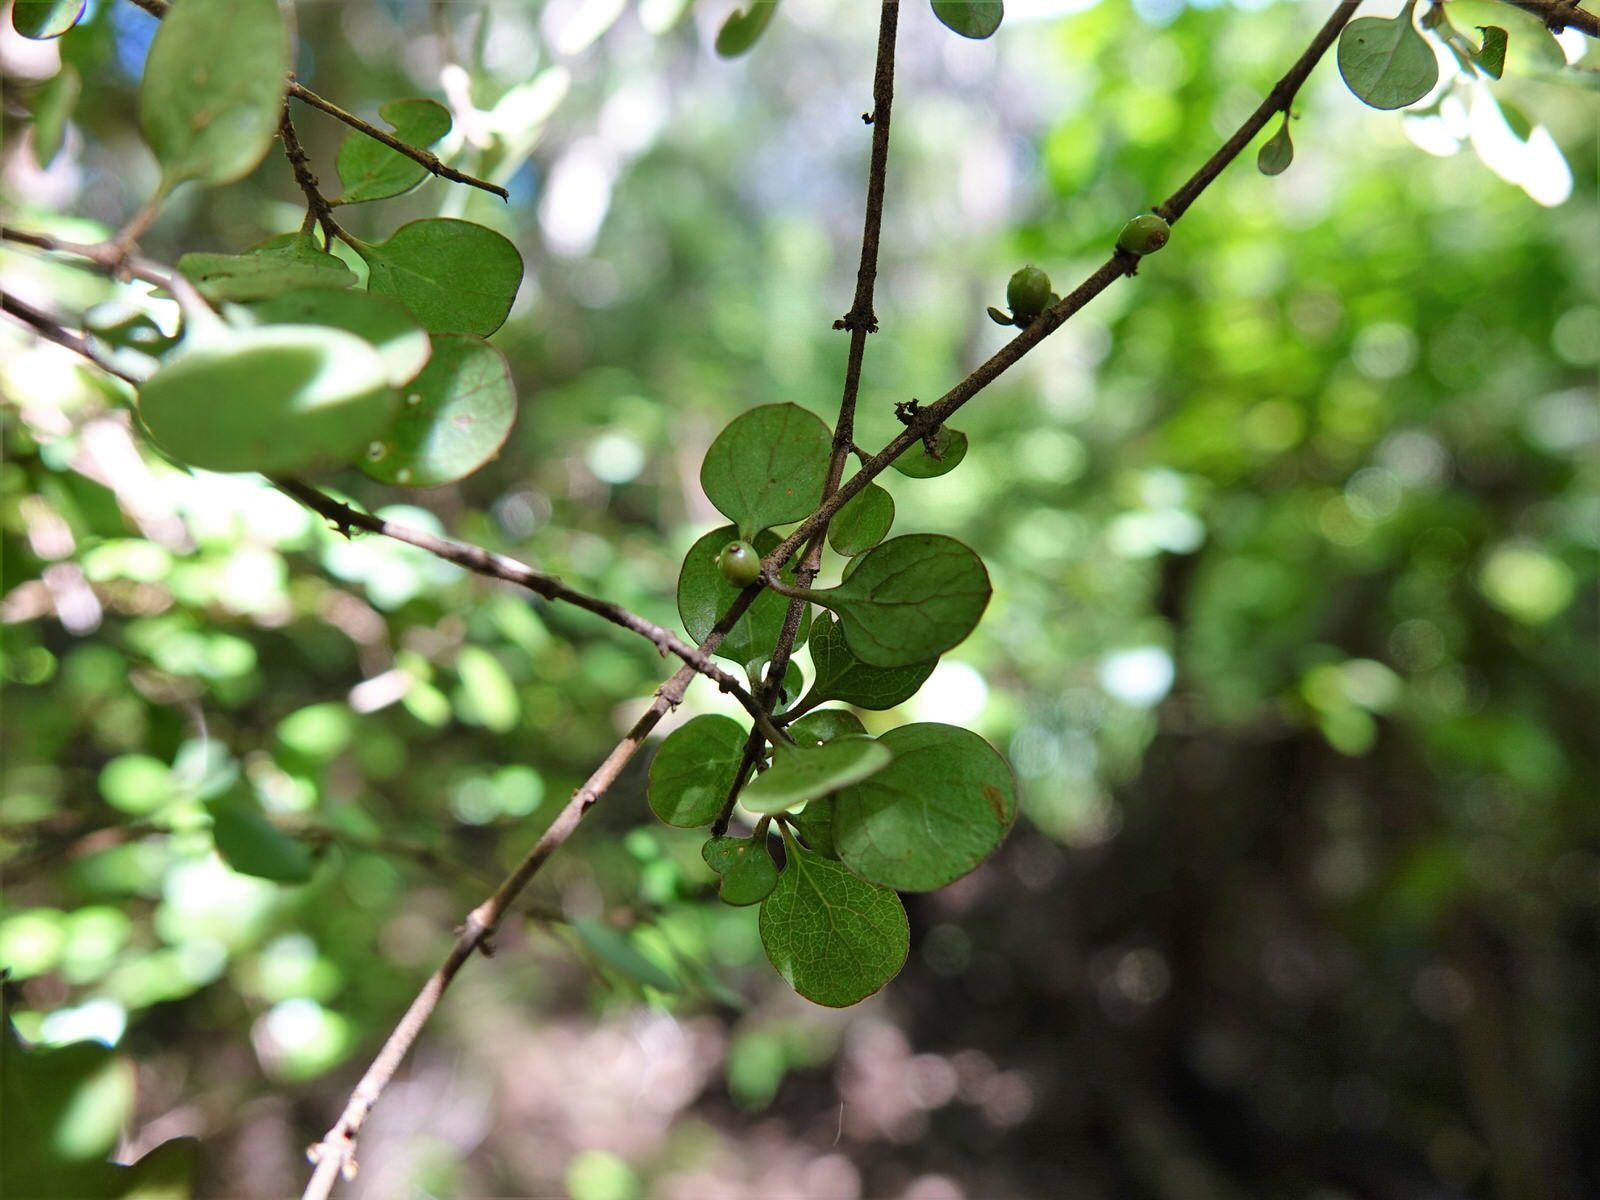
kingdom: Plantae
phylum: Tracheophyta
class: Magnoliopsida
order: Gentianales
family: Rubiaceae
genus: Coprosma
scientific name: Coprosma rhamnoides
